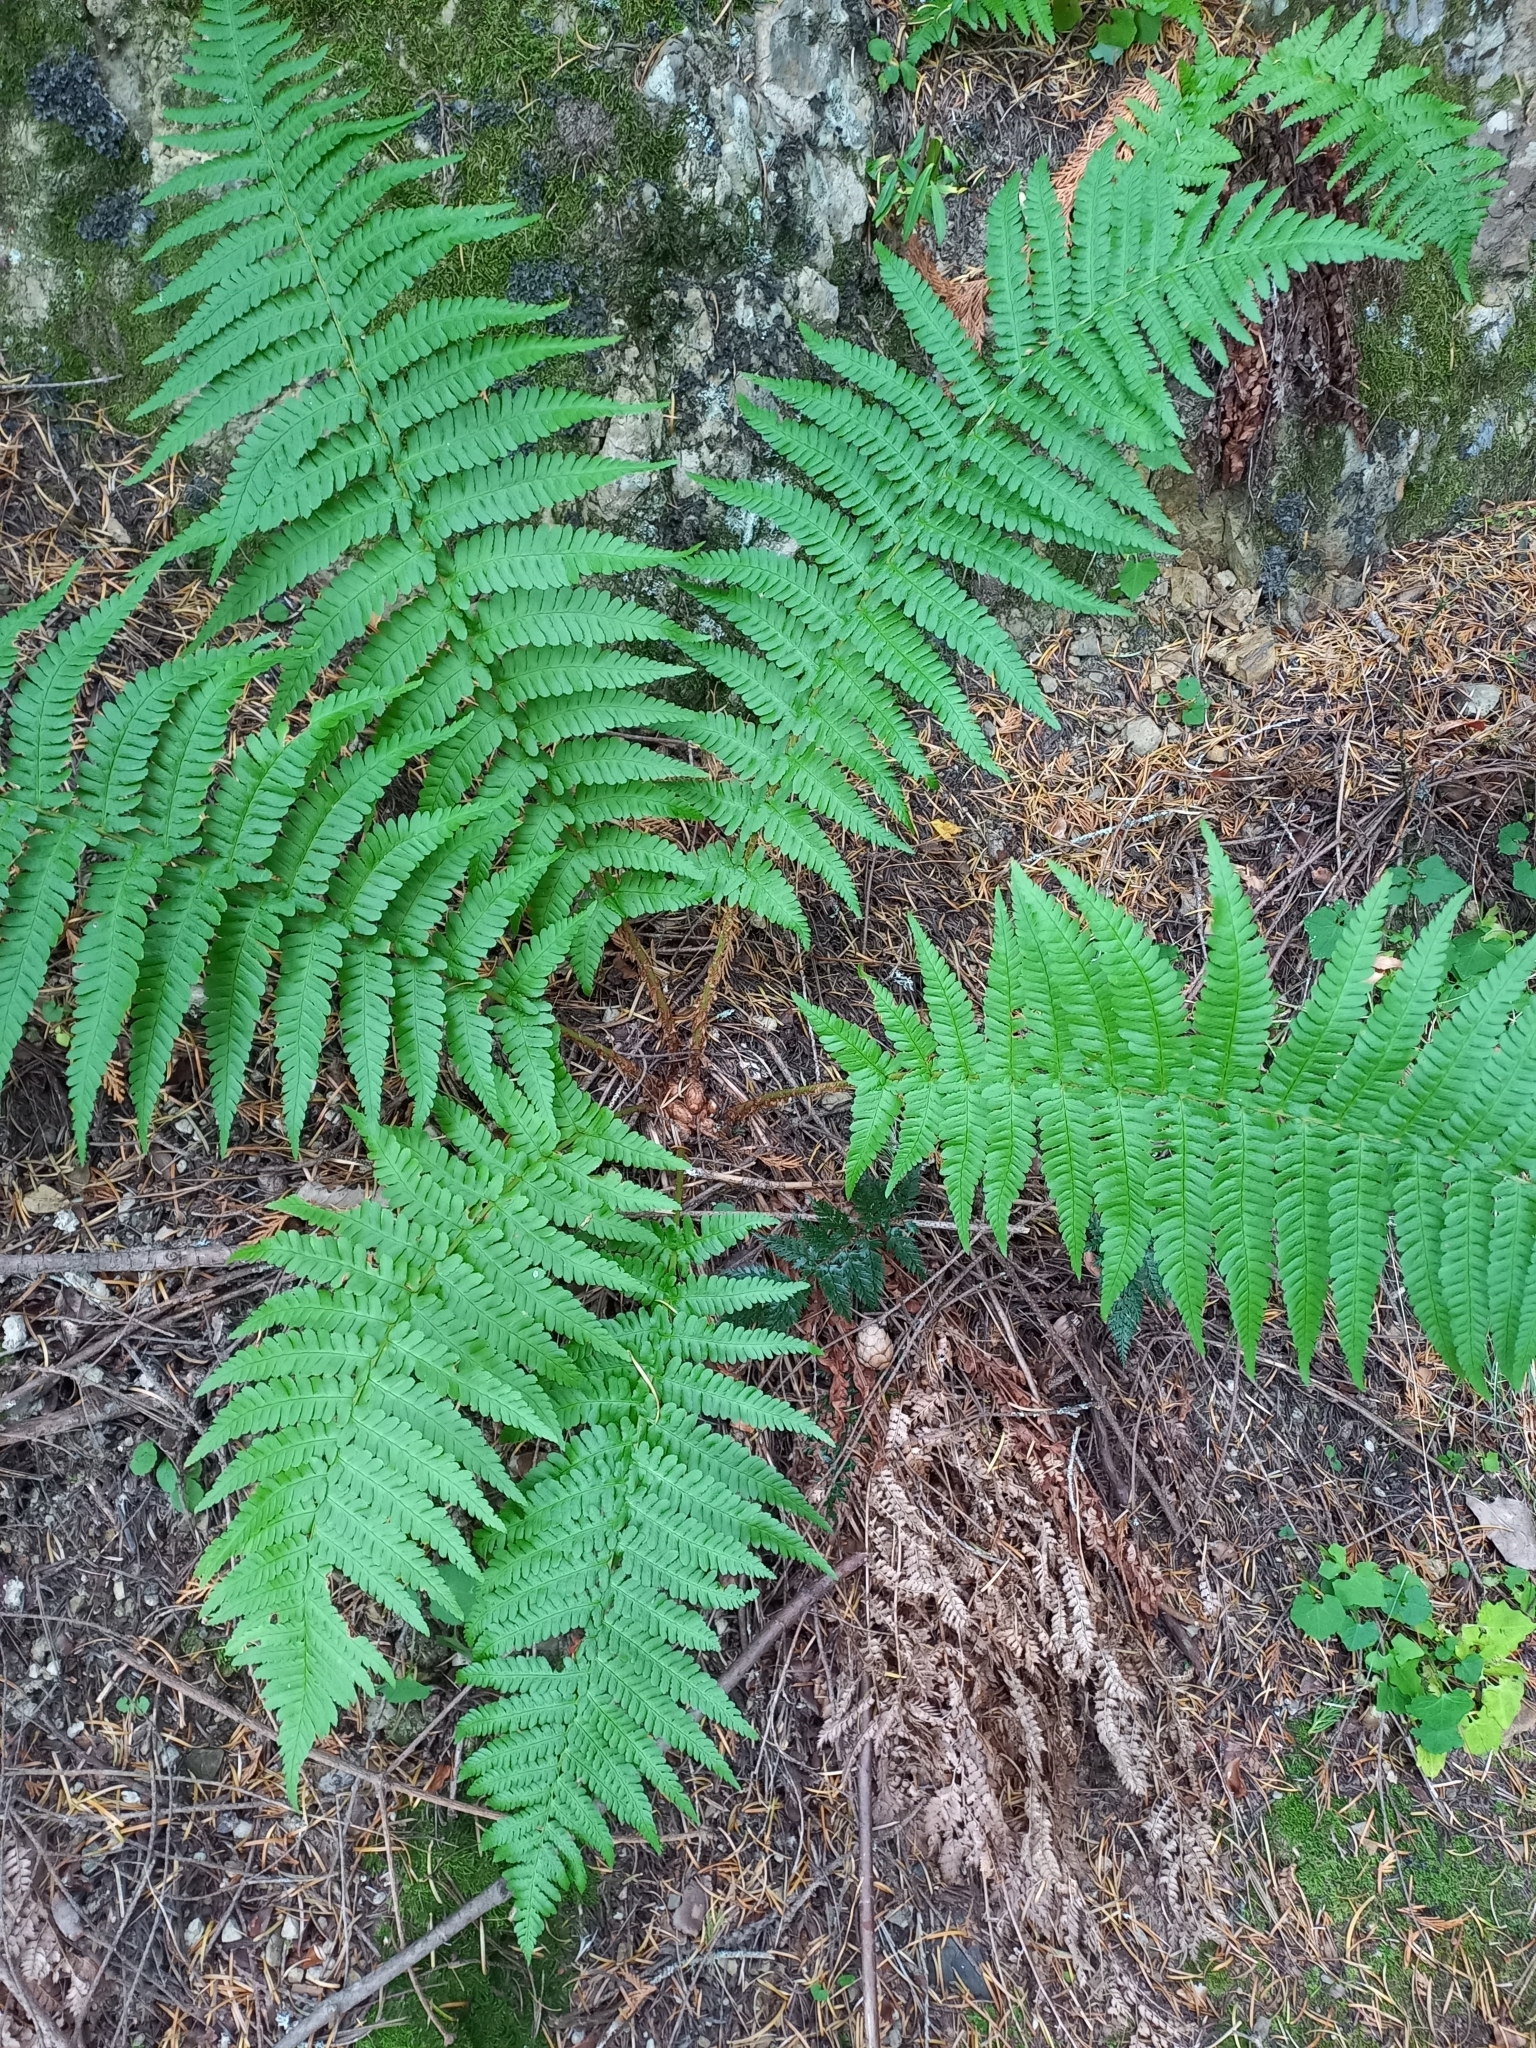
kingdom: Plantae
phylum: Tracheophyta
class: Polypodiopsida
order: Polypodiales
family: Dryopteridaceae
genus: Dryopteris
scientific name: Dryopteris filix-mas
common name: Male fern
